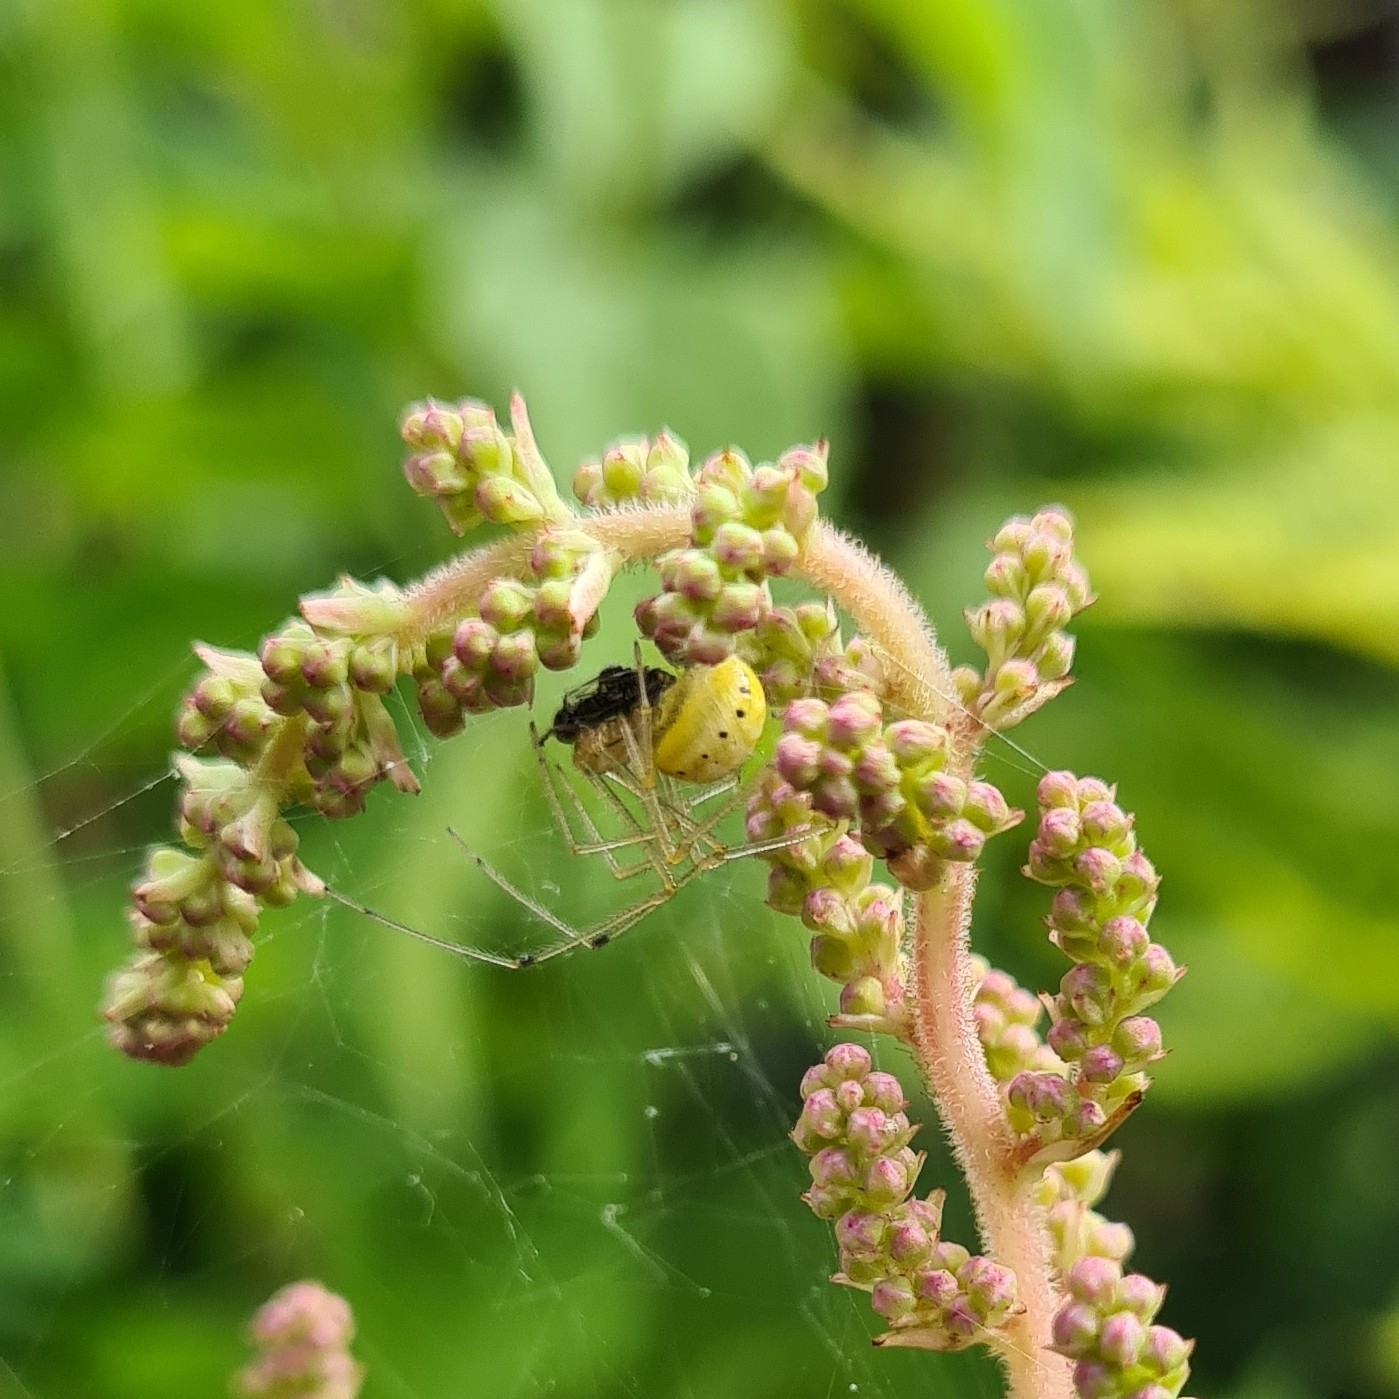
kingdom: Animalia
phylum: Arthropoda
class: Arachnida
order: Araneae
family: Theridiidae
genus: Enoplognatha
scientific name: Enoplognatha ovata
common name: Common candy-striped spider
